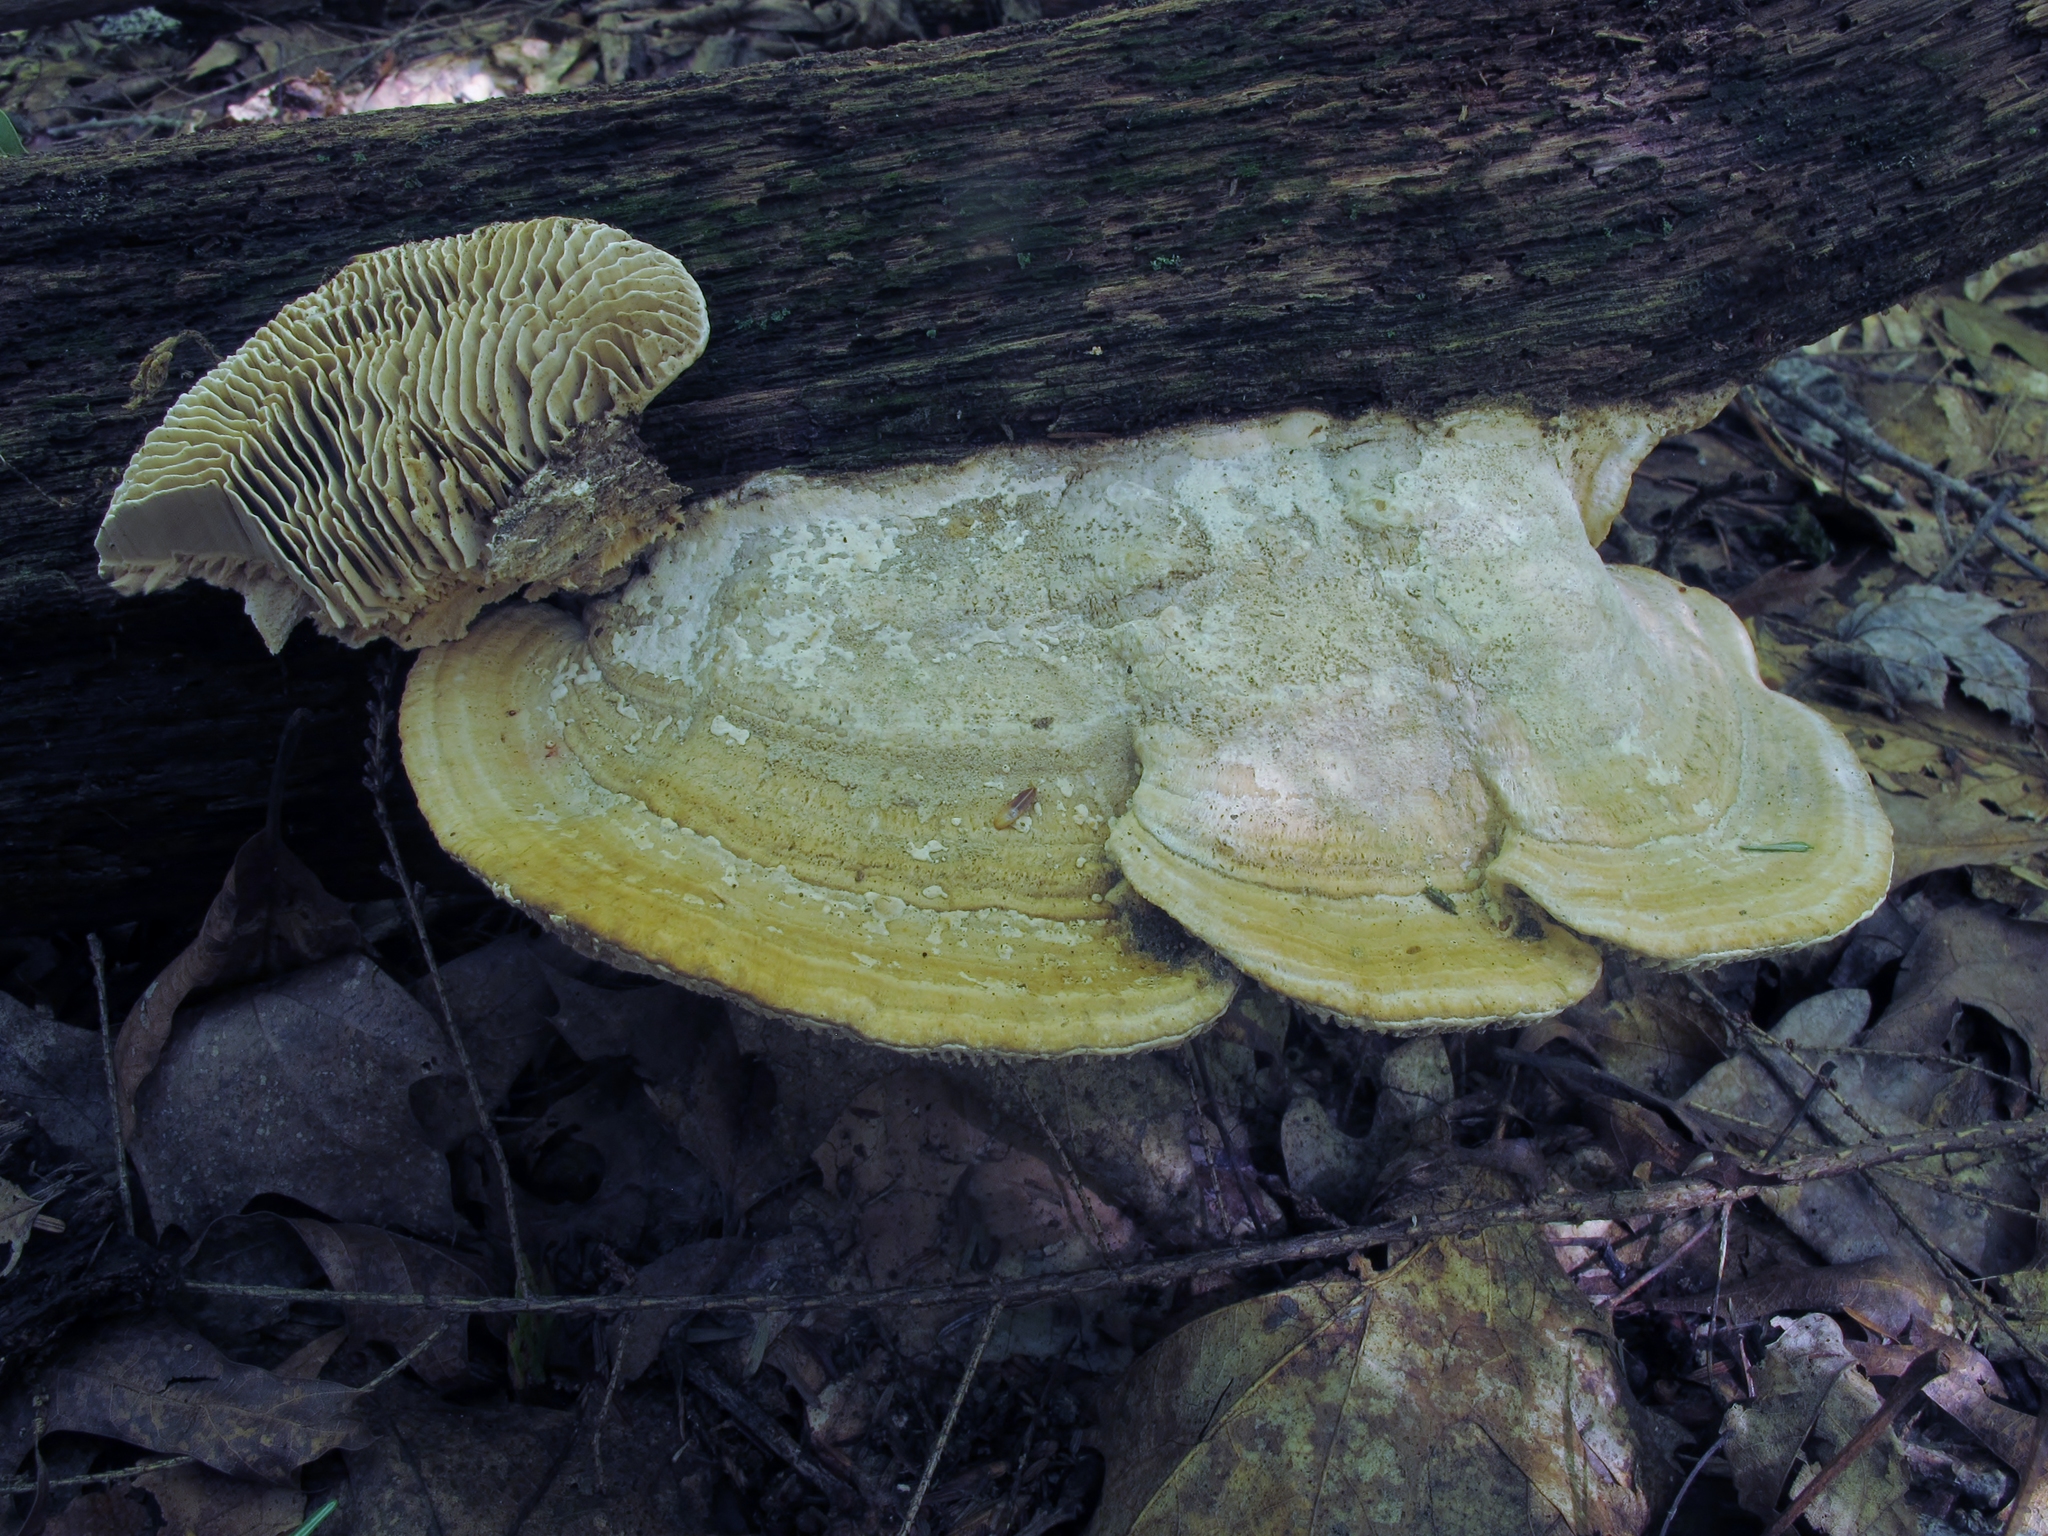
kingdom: Fungi
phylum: Basidiomycota
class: Agaricomycetes
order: Polyporales
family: Fomitopsidaceae
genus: Fomitopsis
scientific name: Fomitopsis
